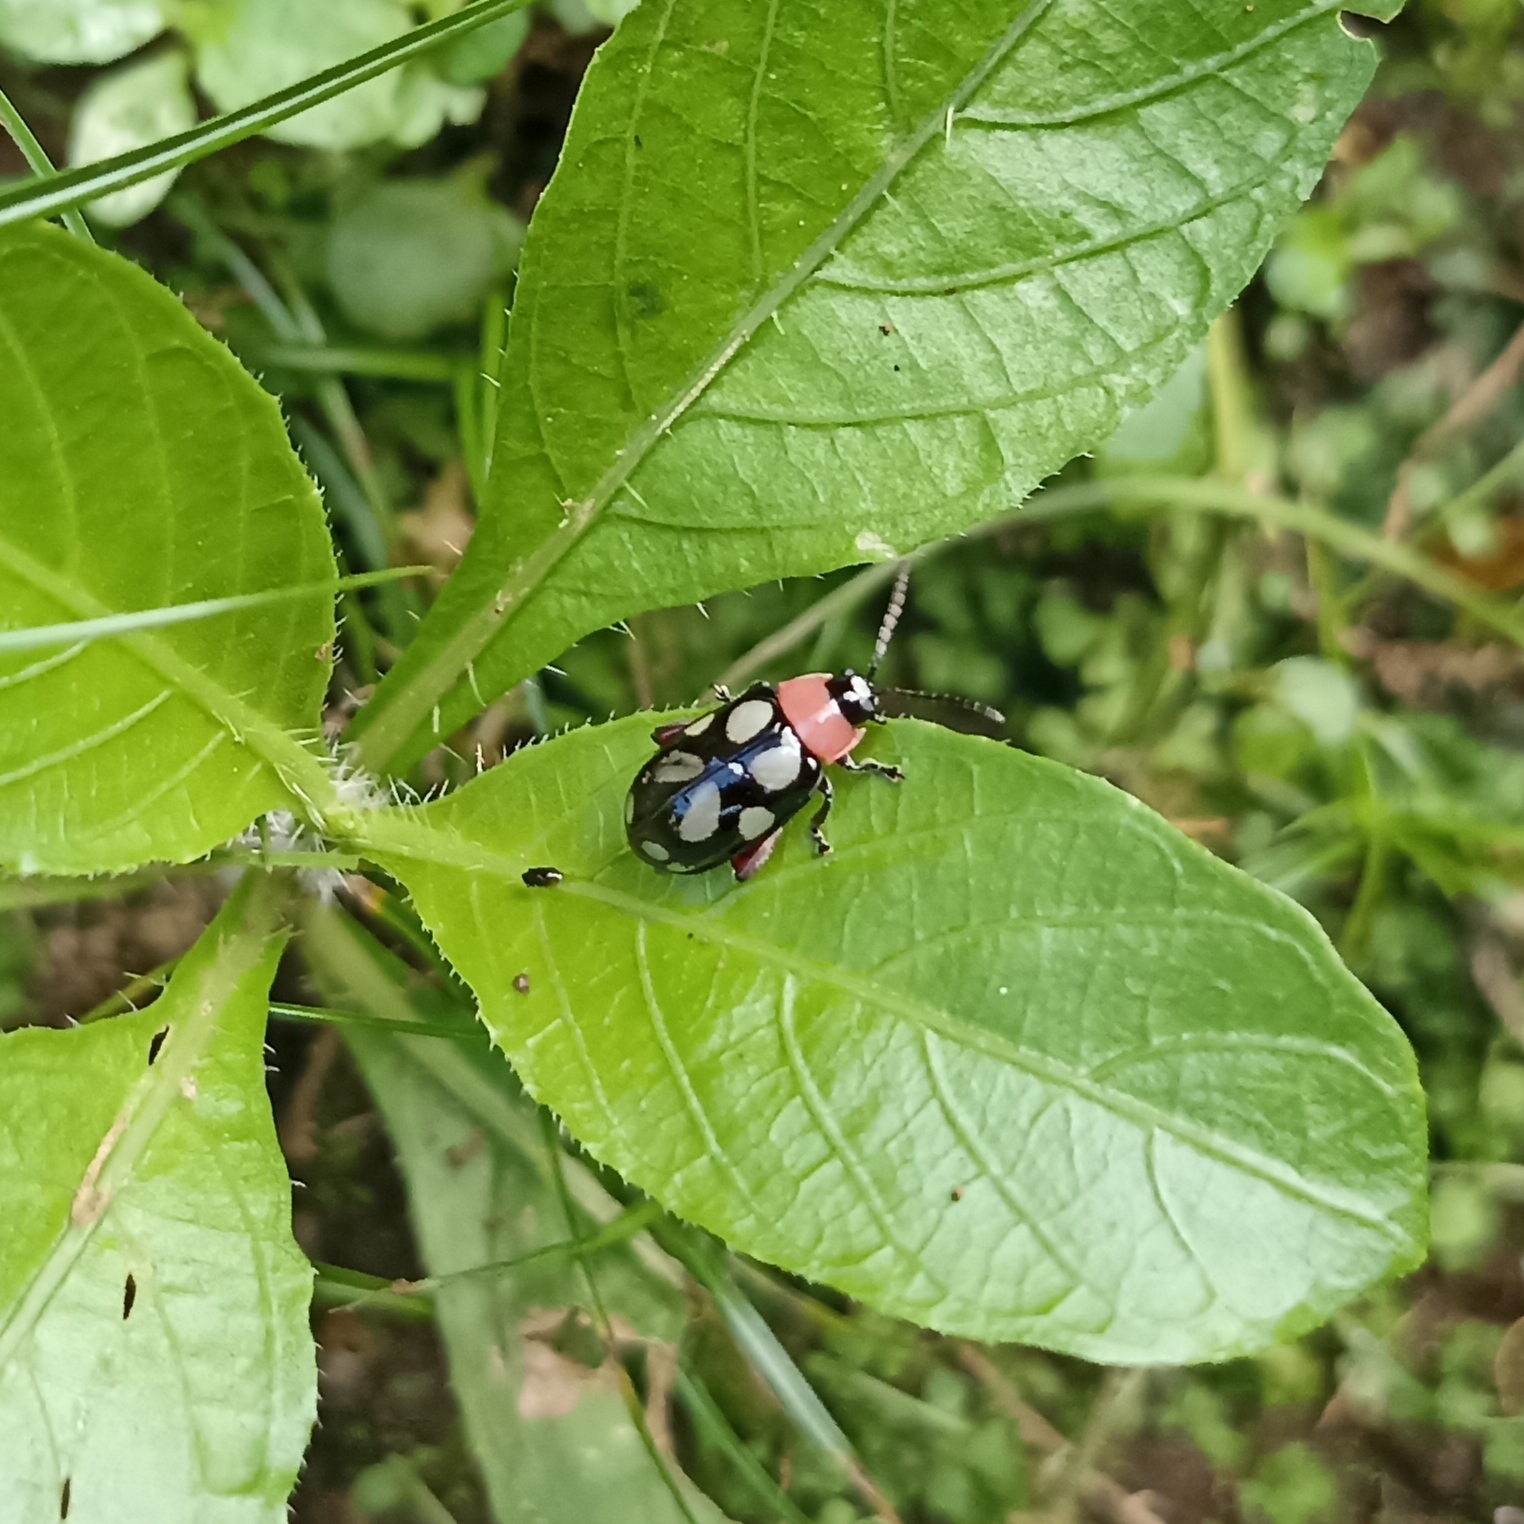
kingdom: Animalia
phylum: Arthropoda
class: Insecta
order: Coleoptera
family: Chrysomelidae
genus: Omophoita
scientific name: Omophoita
